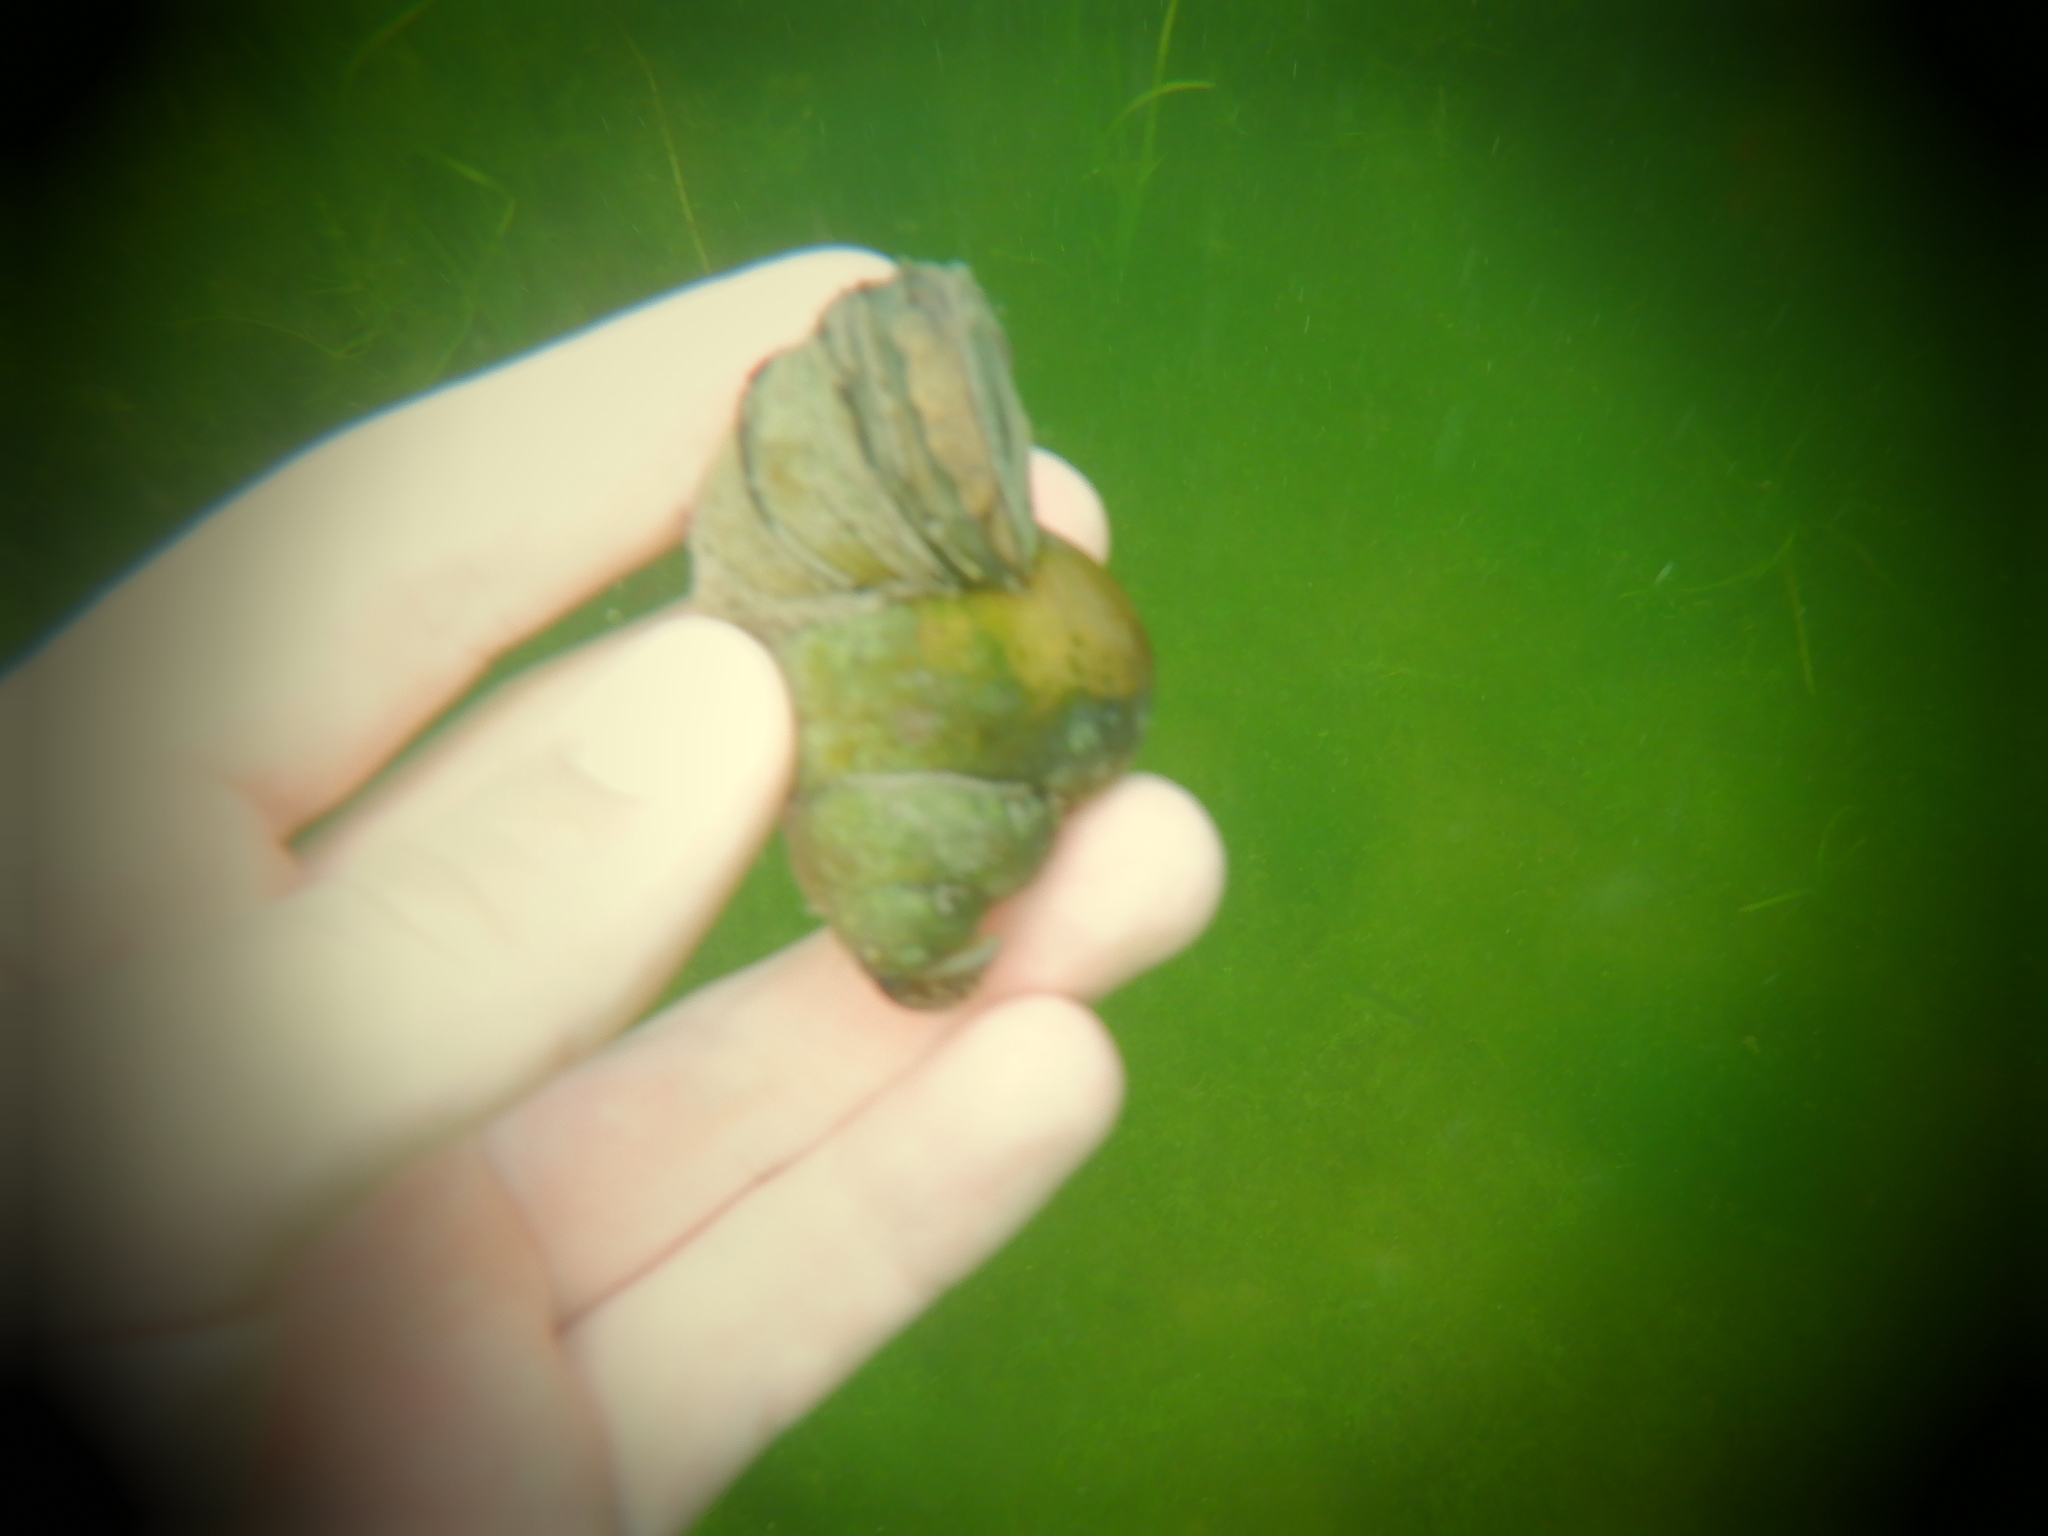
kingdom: Animalia
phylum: Mollusca
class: Gastropoda
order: Architaenioglossa
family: Viviparidae
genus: Cipangopaludina
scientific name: Cipangopaludina chinensis
